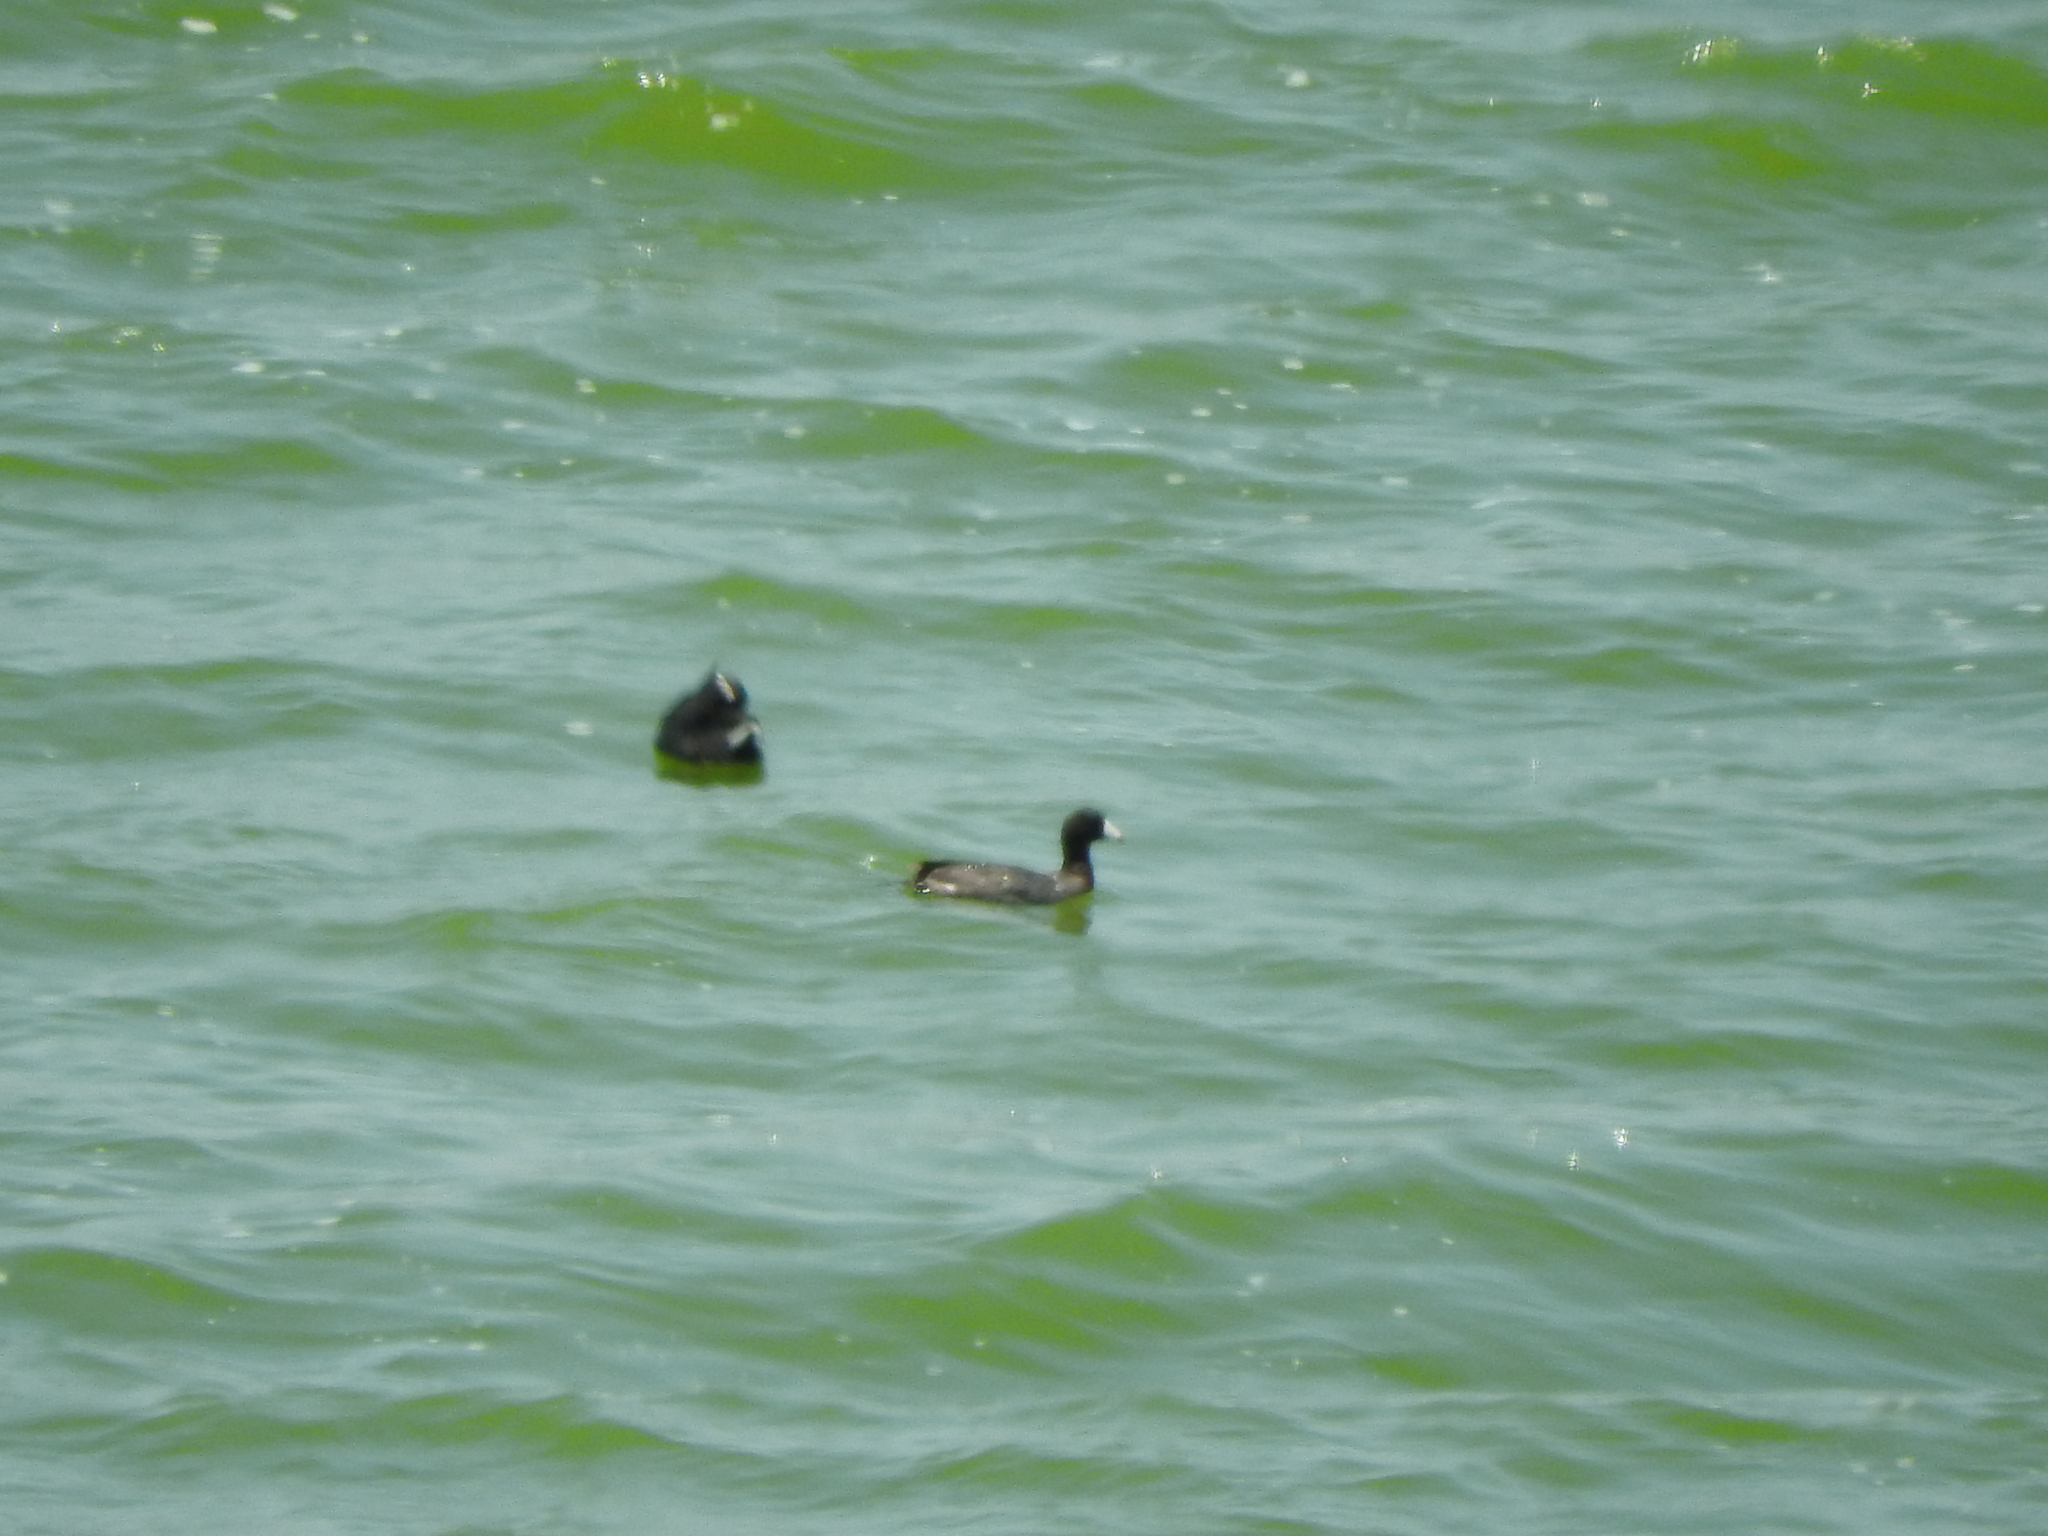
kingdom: Animalia
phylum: Chordata
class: Aves
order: Gruiformes
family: Rallidae
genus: Fulica
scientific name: Fulica americana
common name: American coot
